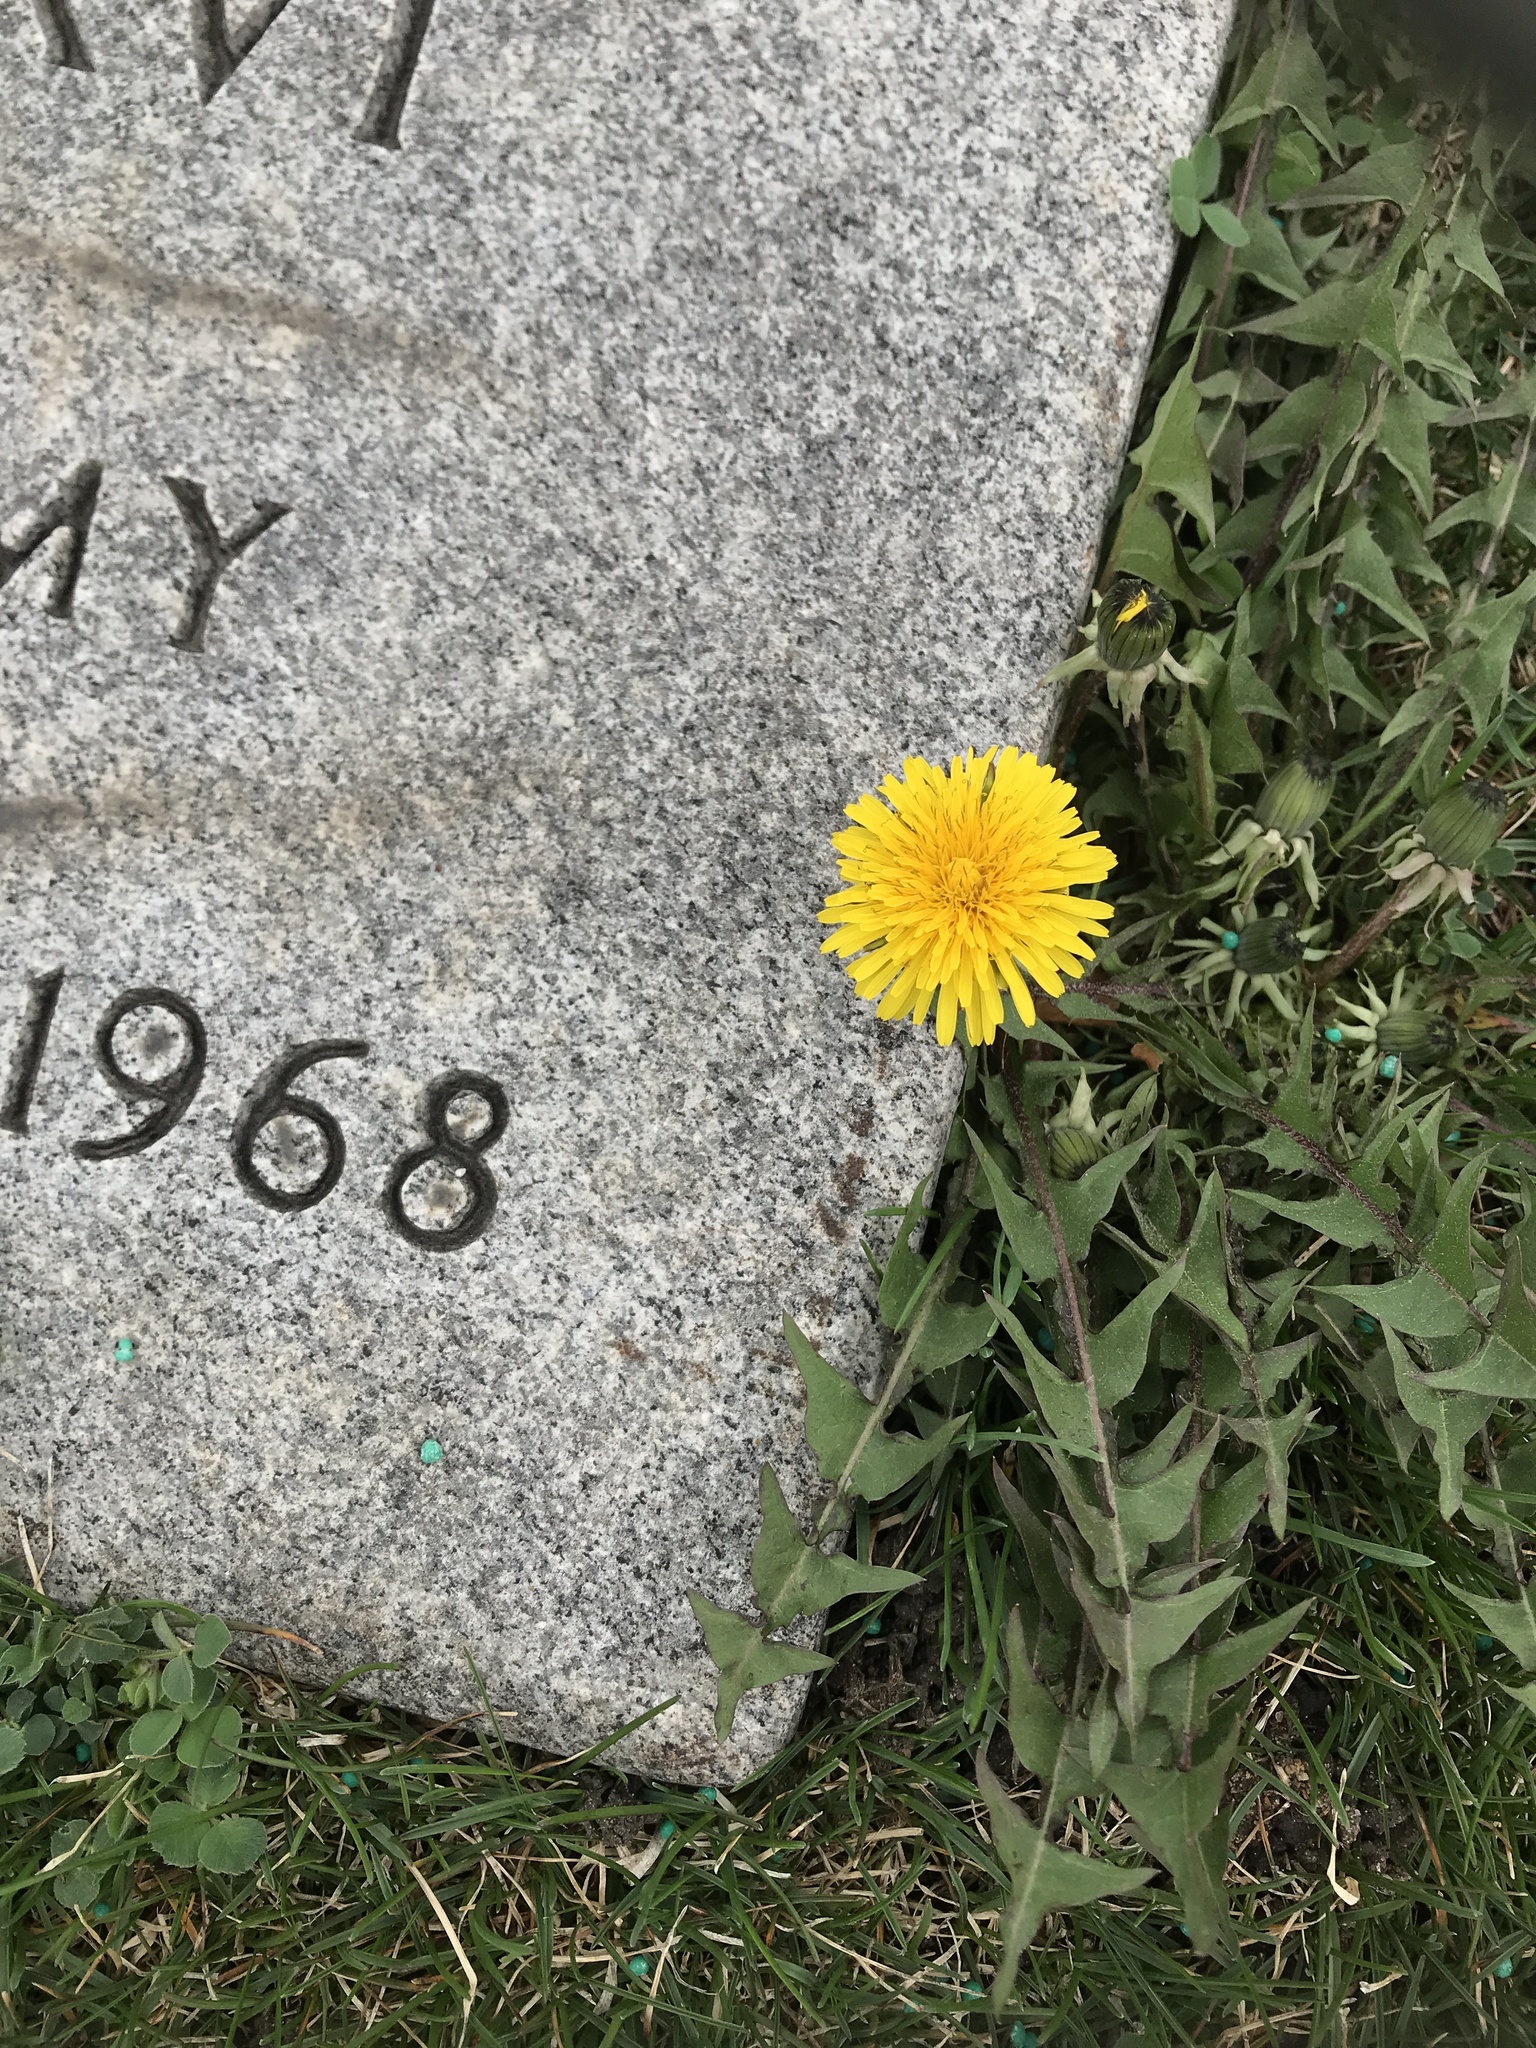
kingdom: Plantae
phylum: Tracheophyta
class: Magnoliopsida
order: Asterales
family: Asteraceae
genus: Taraxacum
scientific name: Taraxacum officinale
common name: Common dandelion
